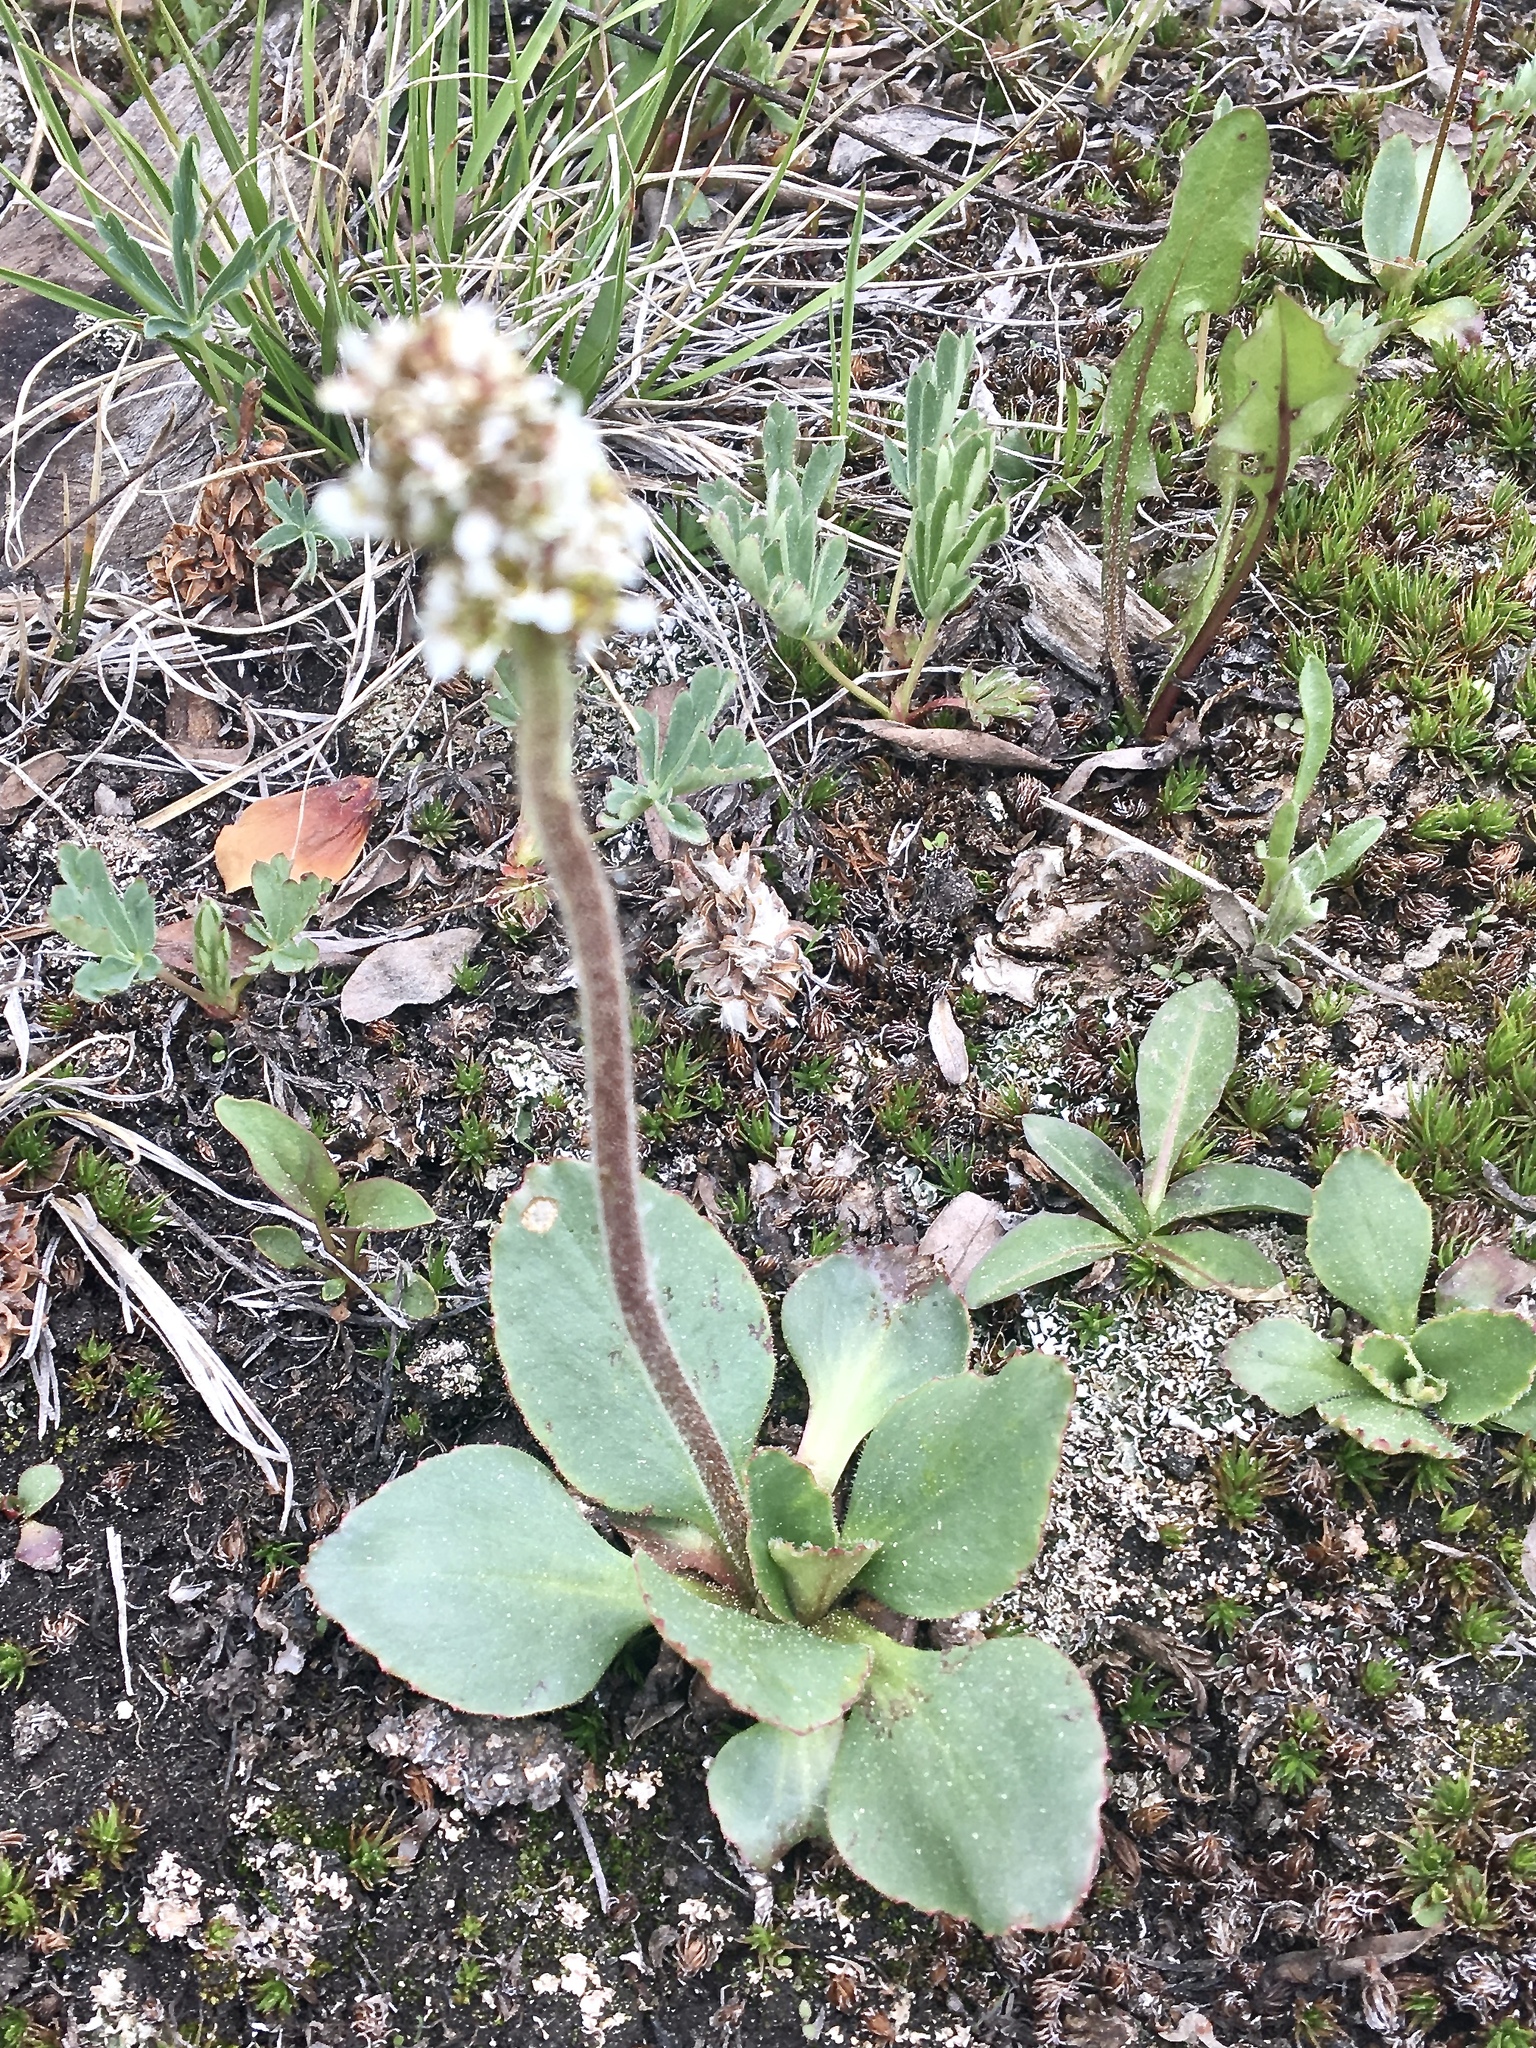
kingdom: Plantae
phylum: Tracheophyta
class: Magnoliopsida
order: Saxifragales
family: Saxifragaceae
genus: Micranthes
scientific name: Micranthes rhomboidea
